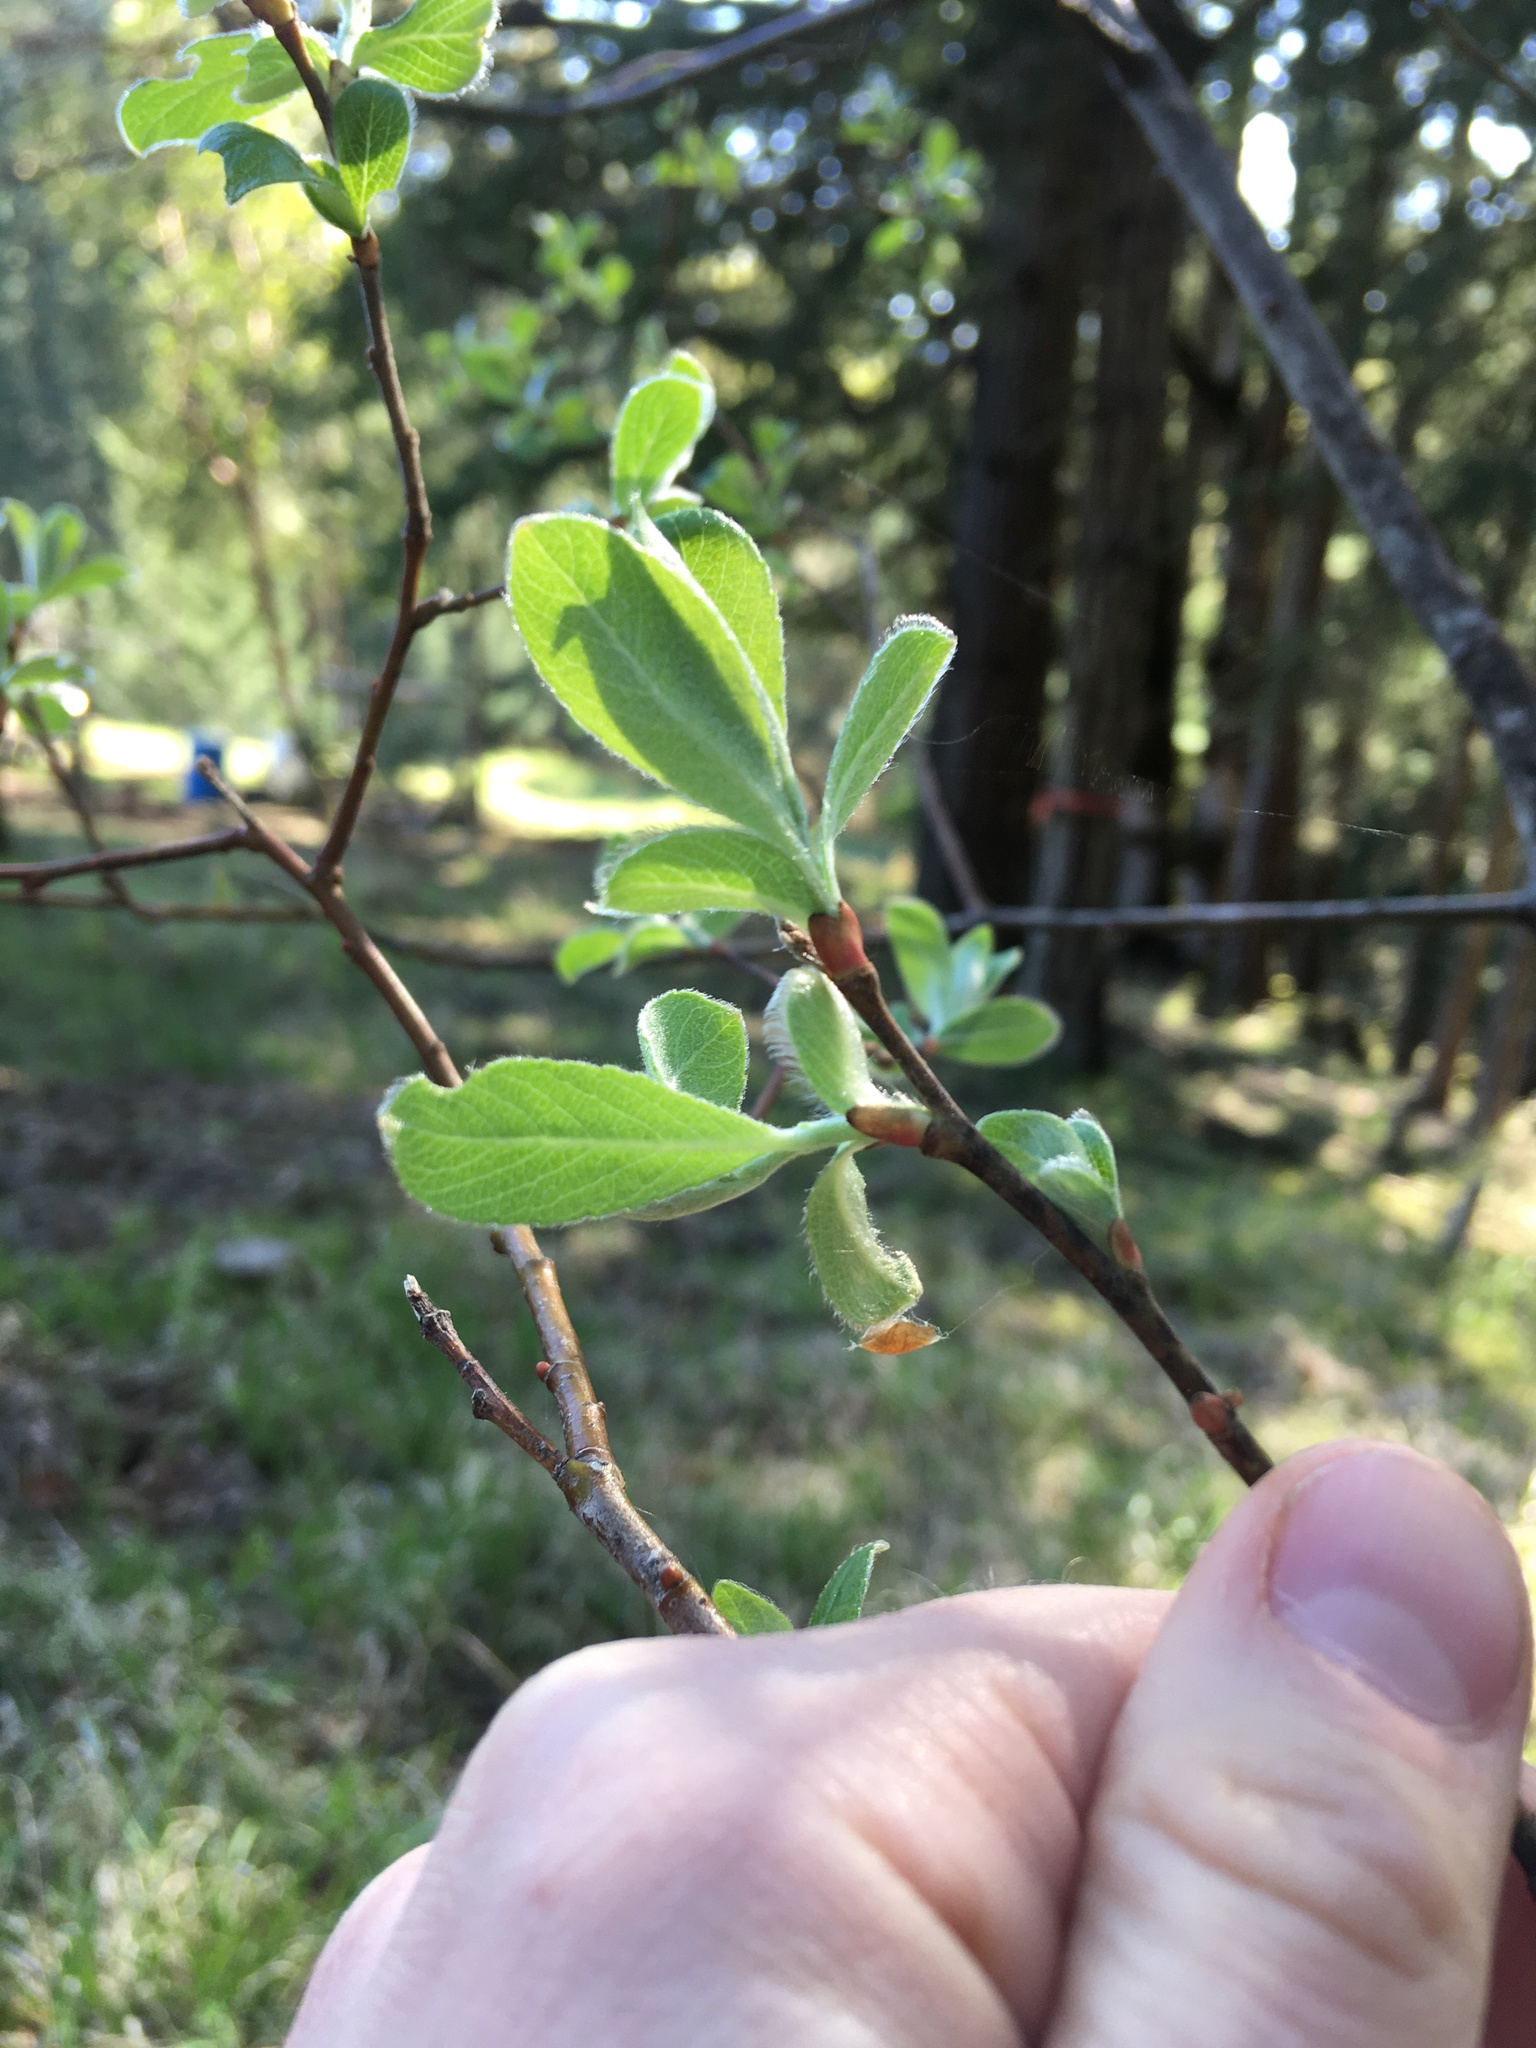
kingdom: Plantae
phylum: Tracheophyta
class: Magnoliopsida
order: Malpighiales
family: Salicaceae
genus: Salix
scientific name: Salix scouleriana
